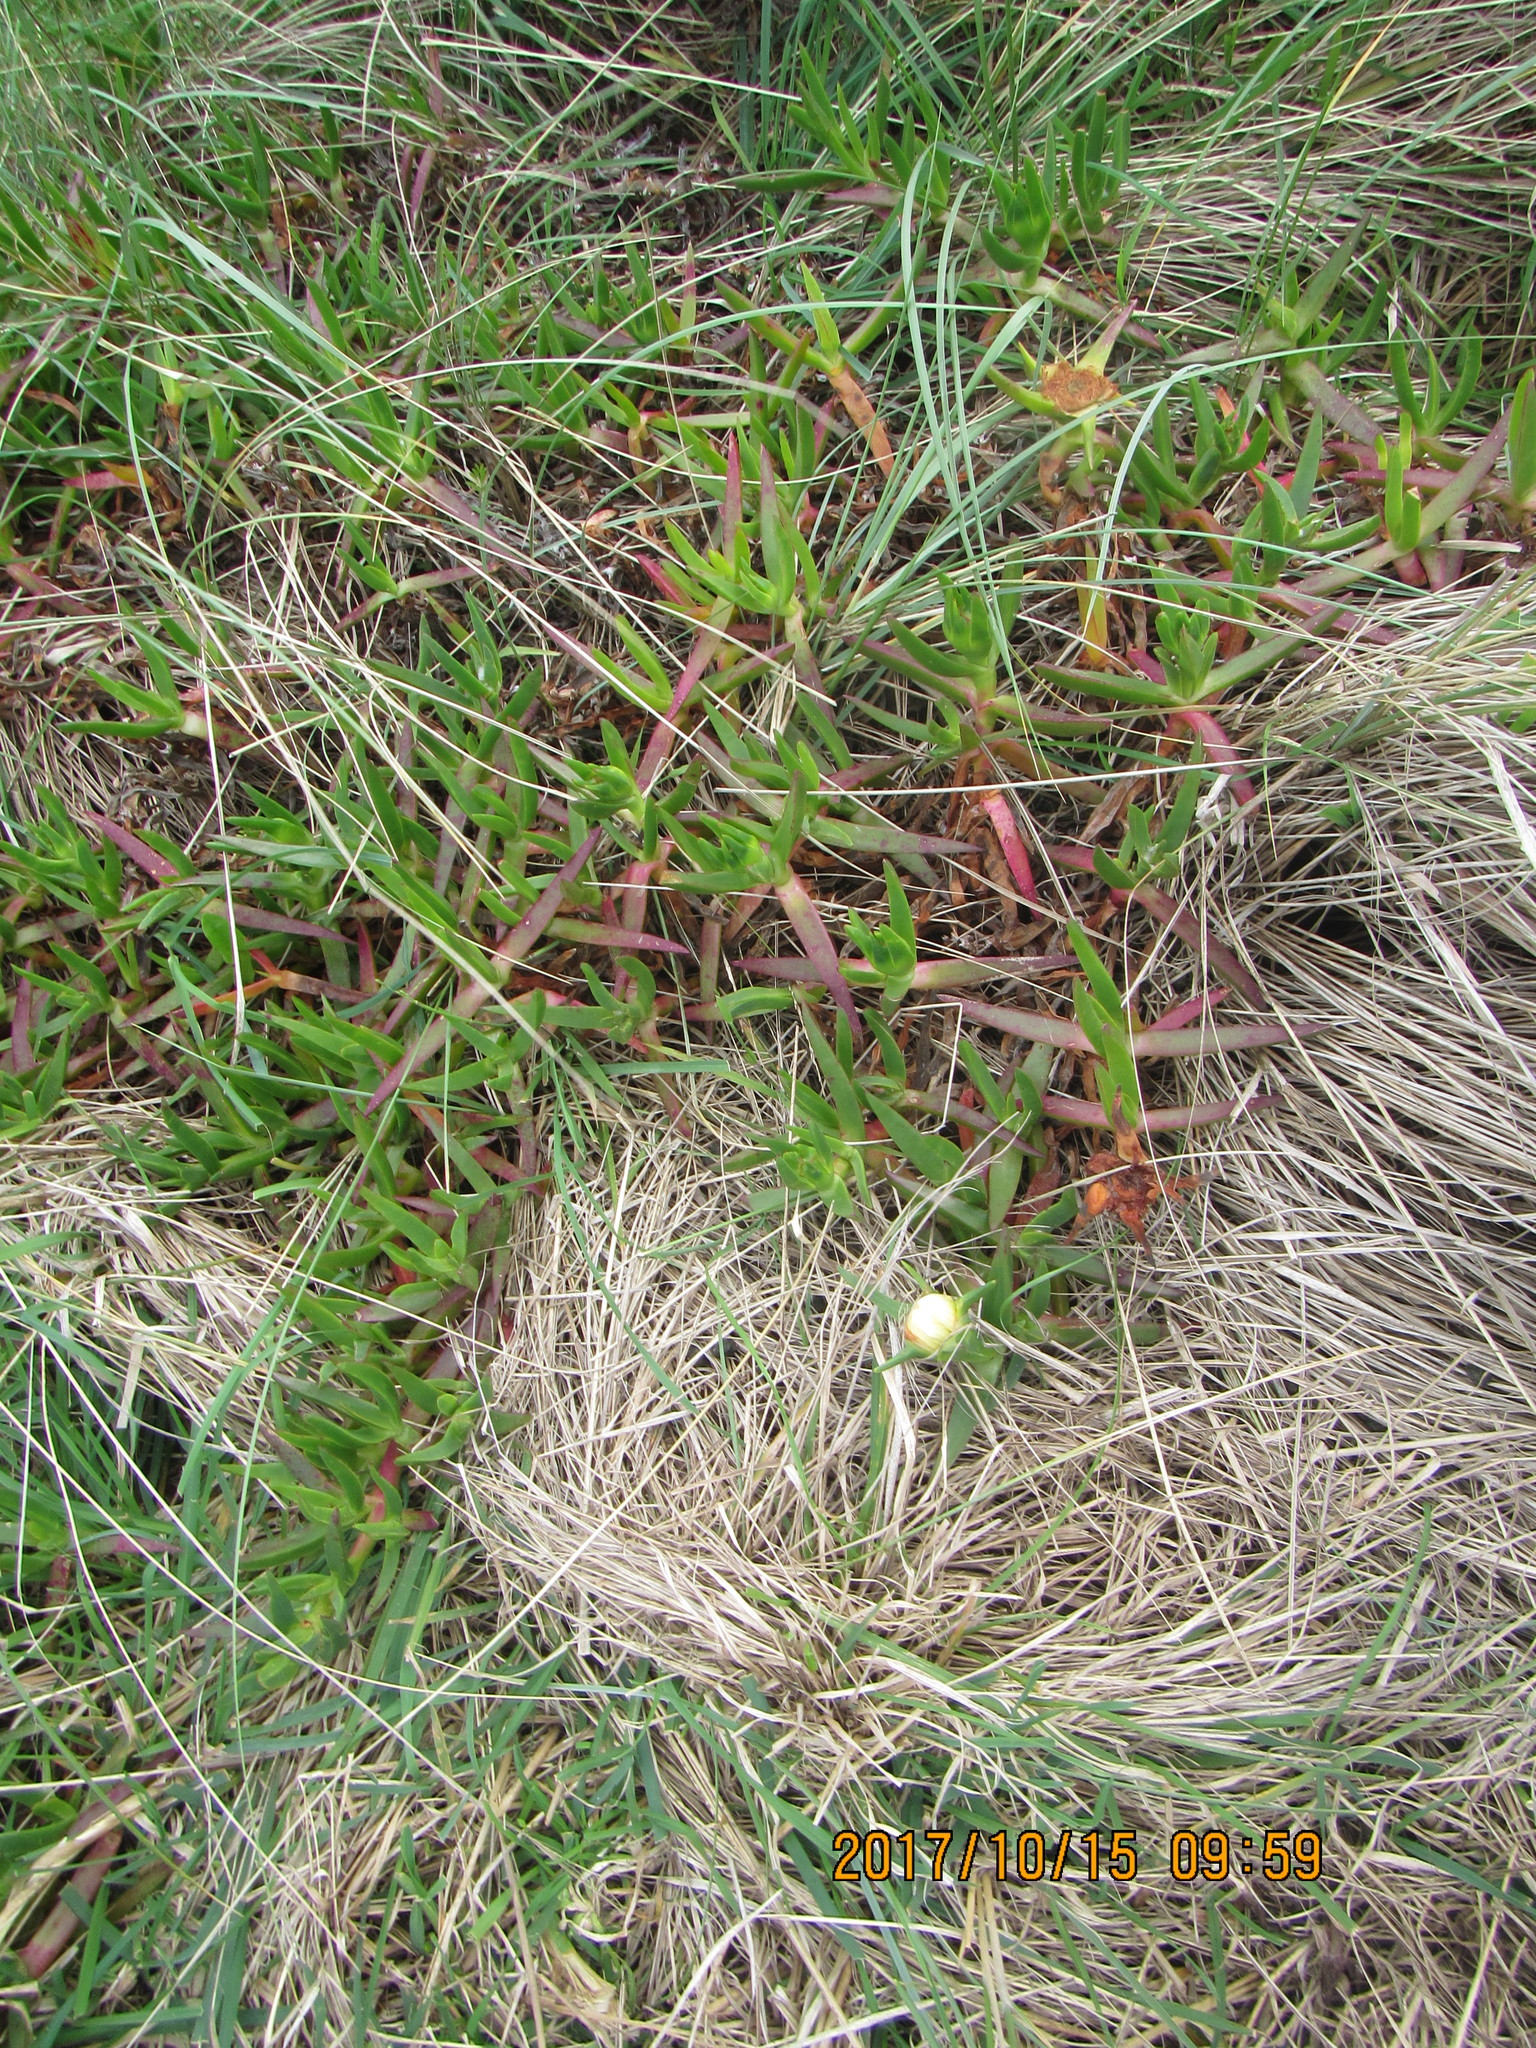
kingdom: Plantae
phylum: Tracheophyta
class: Magnoliopsida
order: Caryophyllales
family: Aizoaceae
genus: Carpobrotus
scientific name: Carpobrotus edulis
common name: Hottentot-fig
